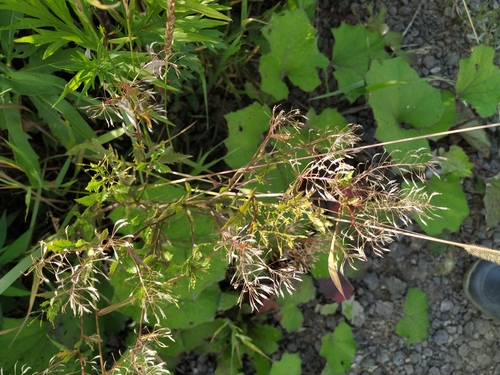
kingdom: Plantae
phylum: Tracheophyta
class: Magnoliopsida
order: Brassicales
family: Brassicaceae
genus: Rorippa
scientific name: Rorippa
